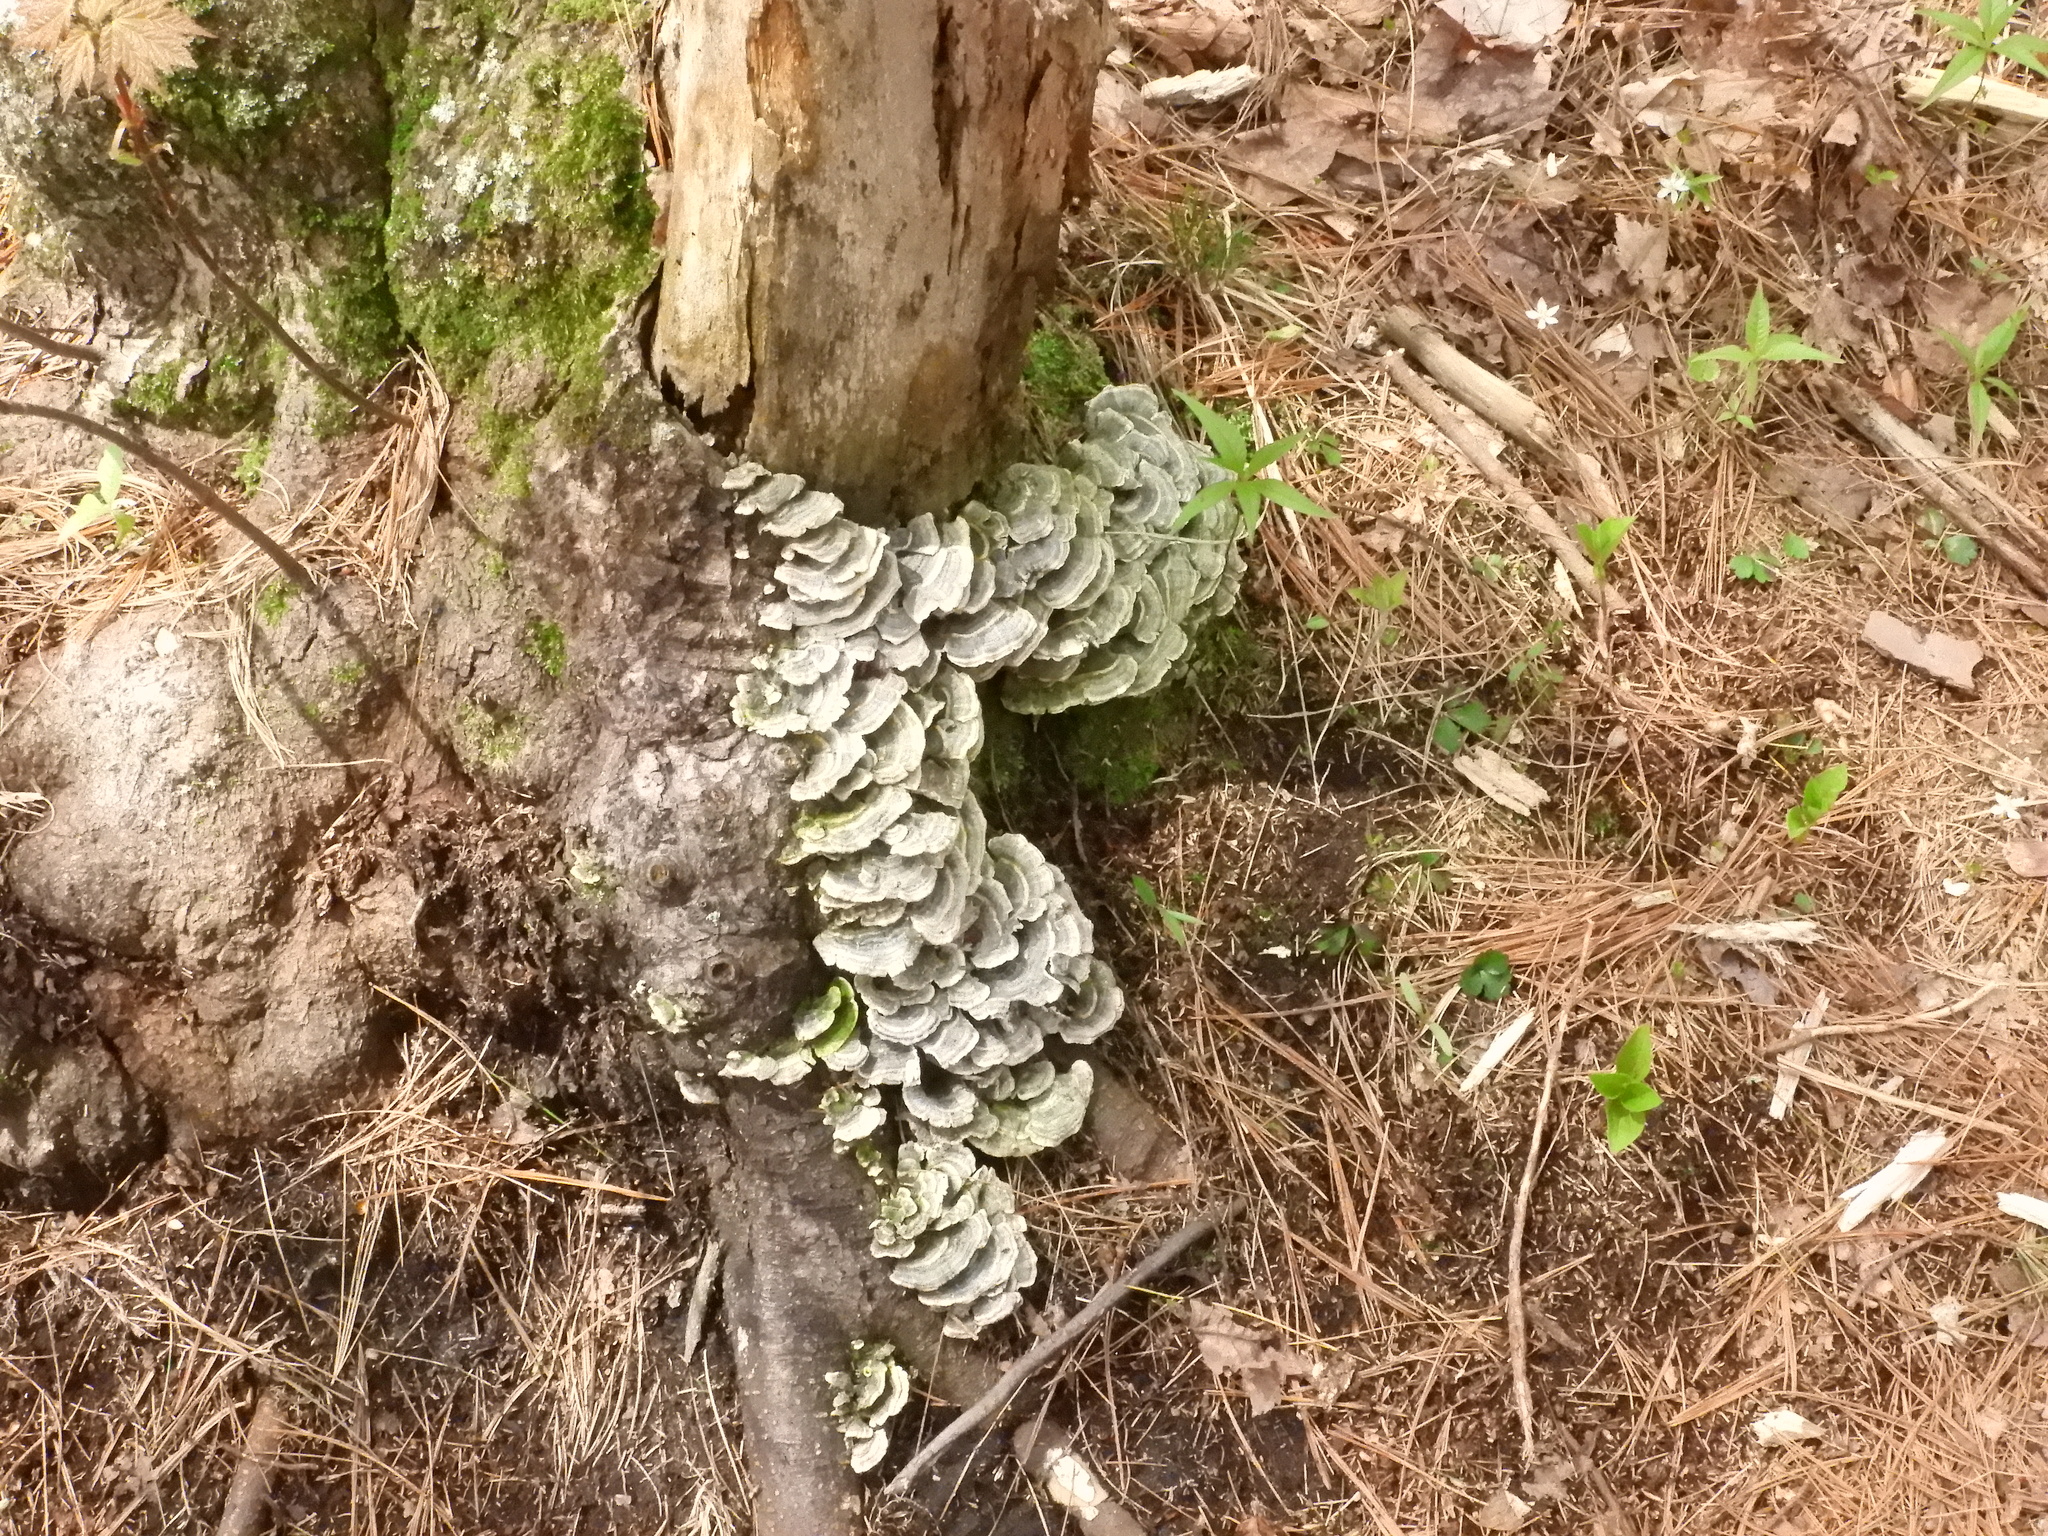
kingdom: Fungi
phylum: Basidiomycota
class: Agaricomycetes
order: Polyporales
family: Polyporaceae
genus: Trametes
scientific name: Trametes versicolor
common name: Turkeytail
